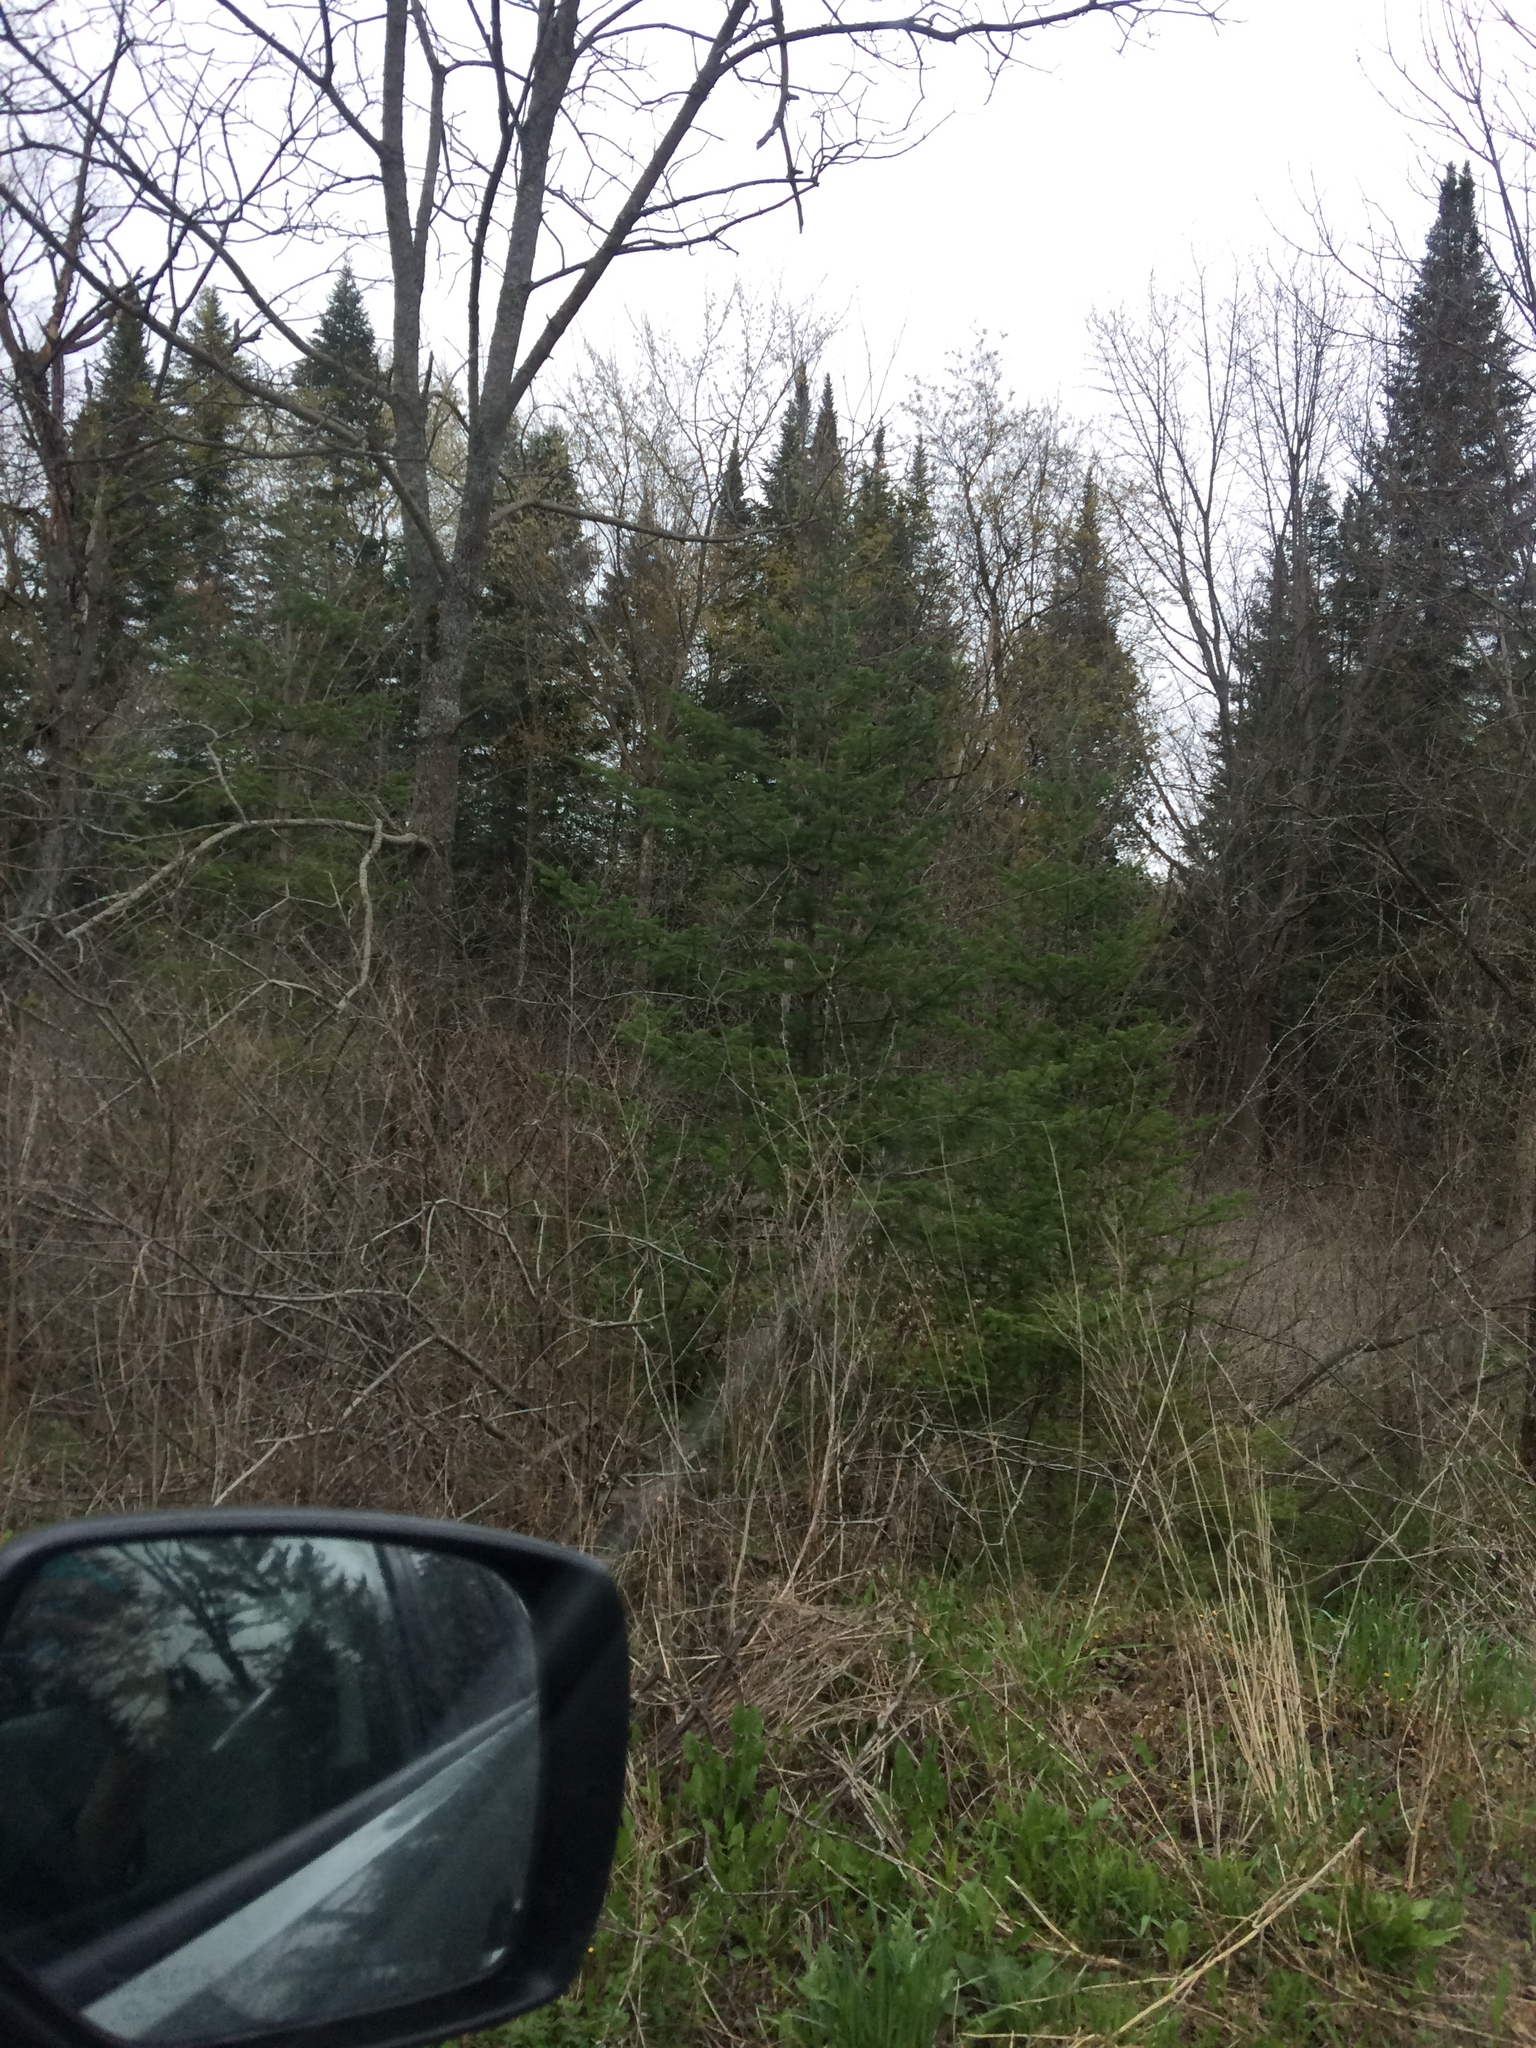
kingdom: Plantae
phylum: Tracheophyta
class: Pinopsida
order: Pinales
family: Pinaceae
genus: Abies
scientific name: Abies balsamea
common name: Balsam fir
